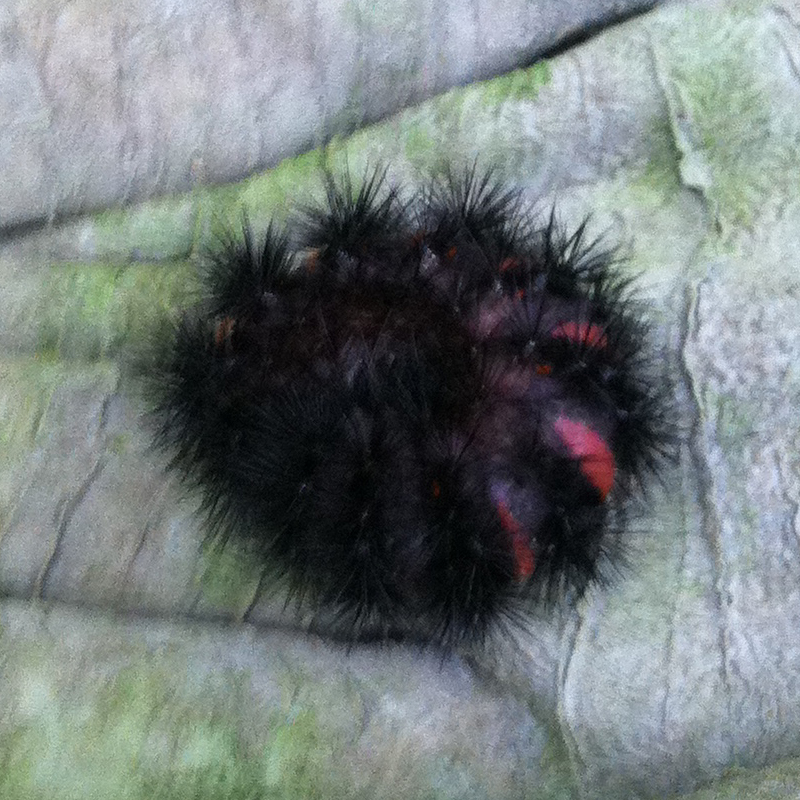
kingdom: Animalia
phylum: Arthropoda
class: Insecta
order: Lepidoptera
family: Erebidae
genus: Hypercompe
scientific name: Hypercompe scribonia
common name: Giant leopard moth
